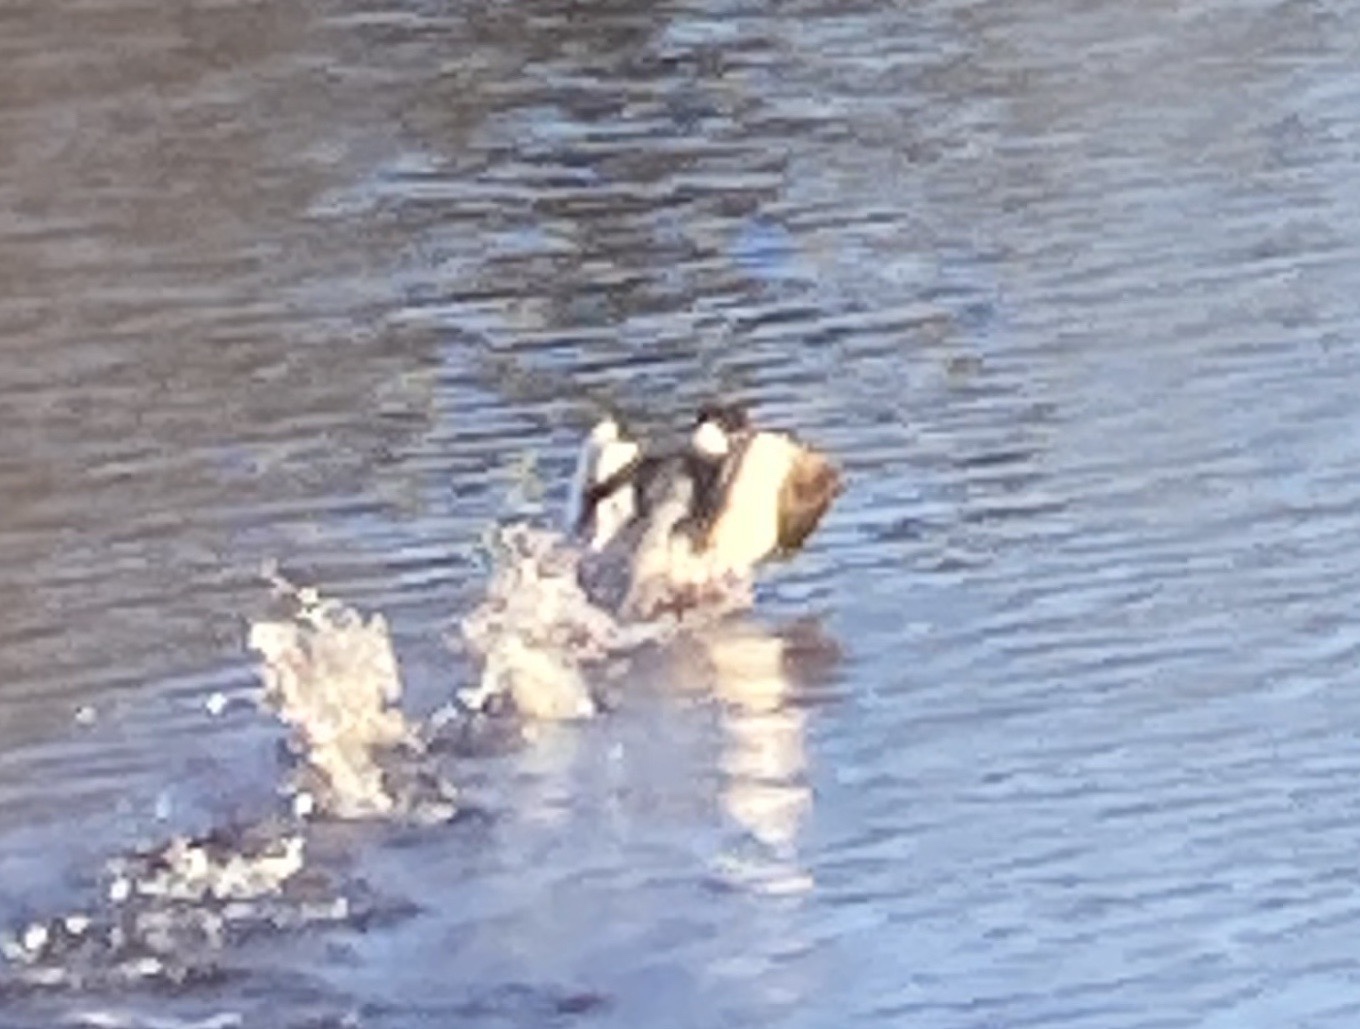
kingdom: Animalia
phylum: Chordata
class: Aves
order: Anseriformes
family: Anatidae
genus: Mergus
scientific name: Mergus merganser
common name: Common merganser
